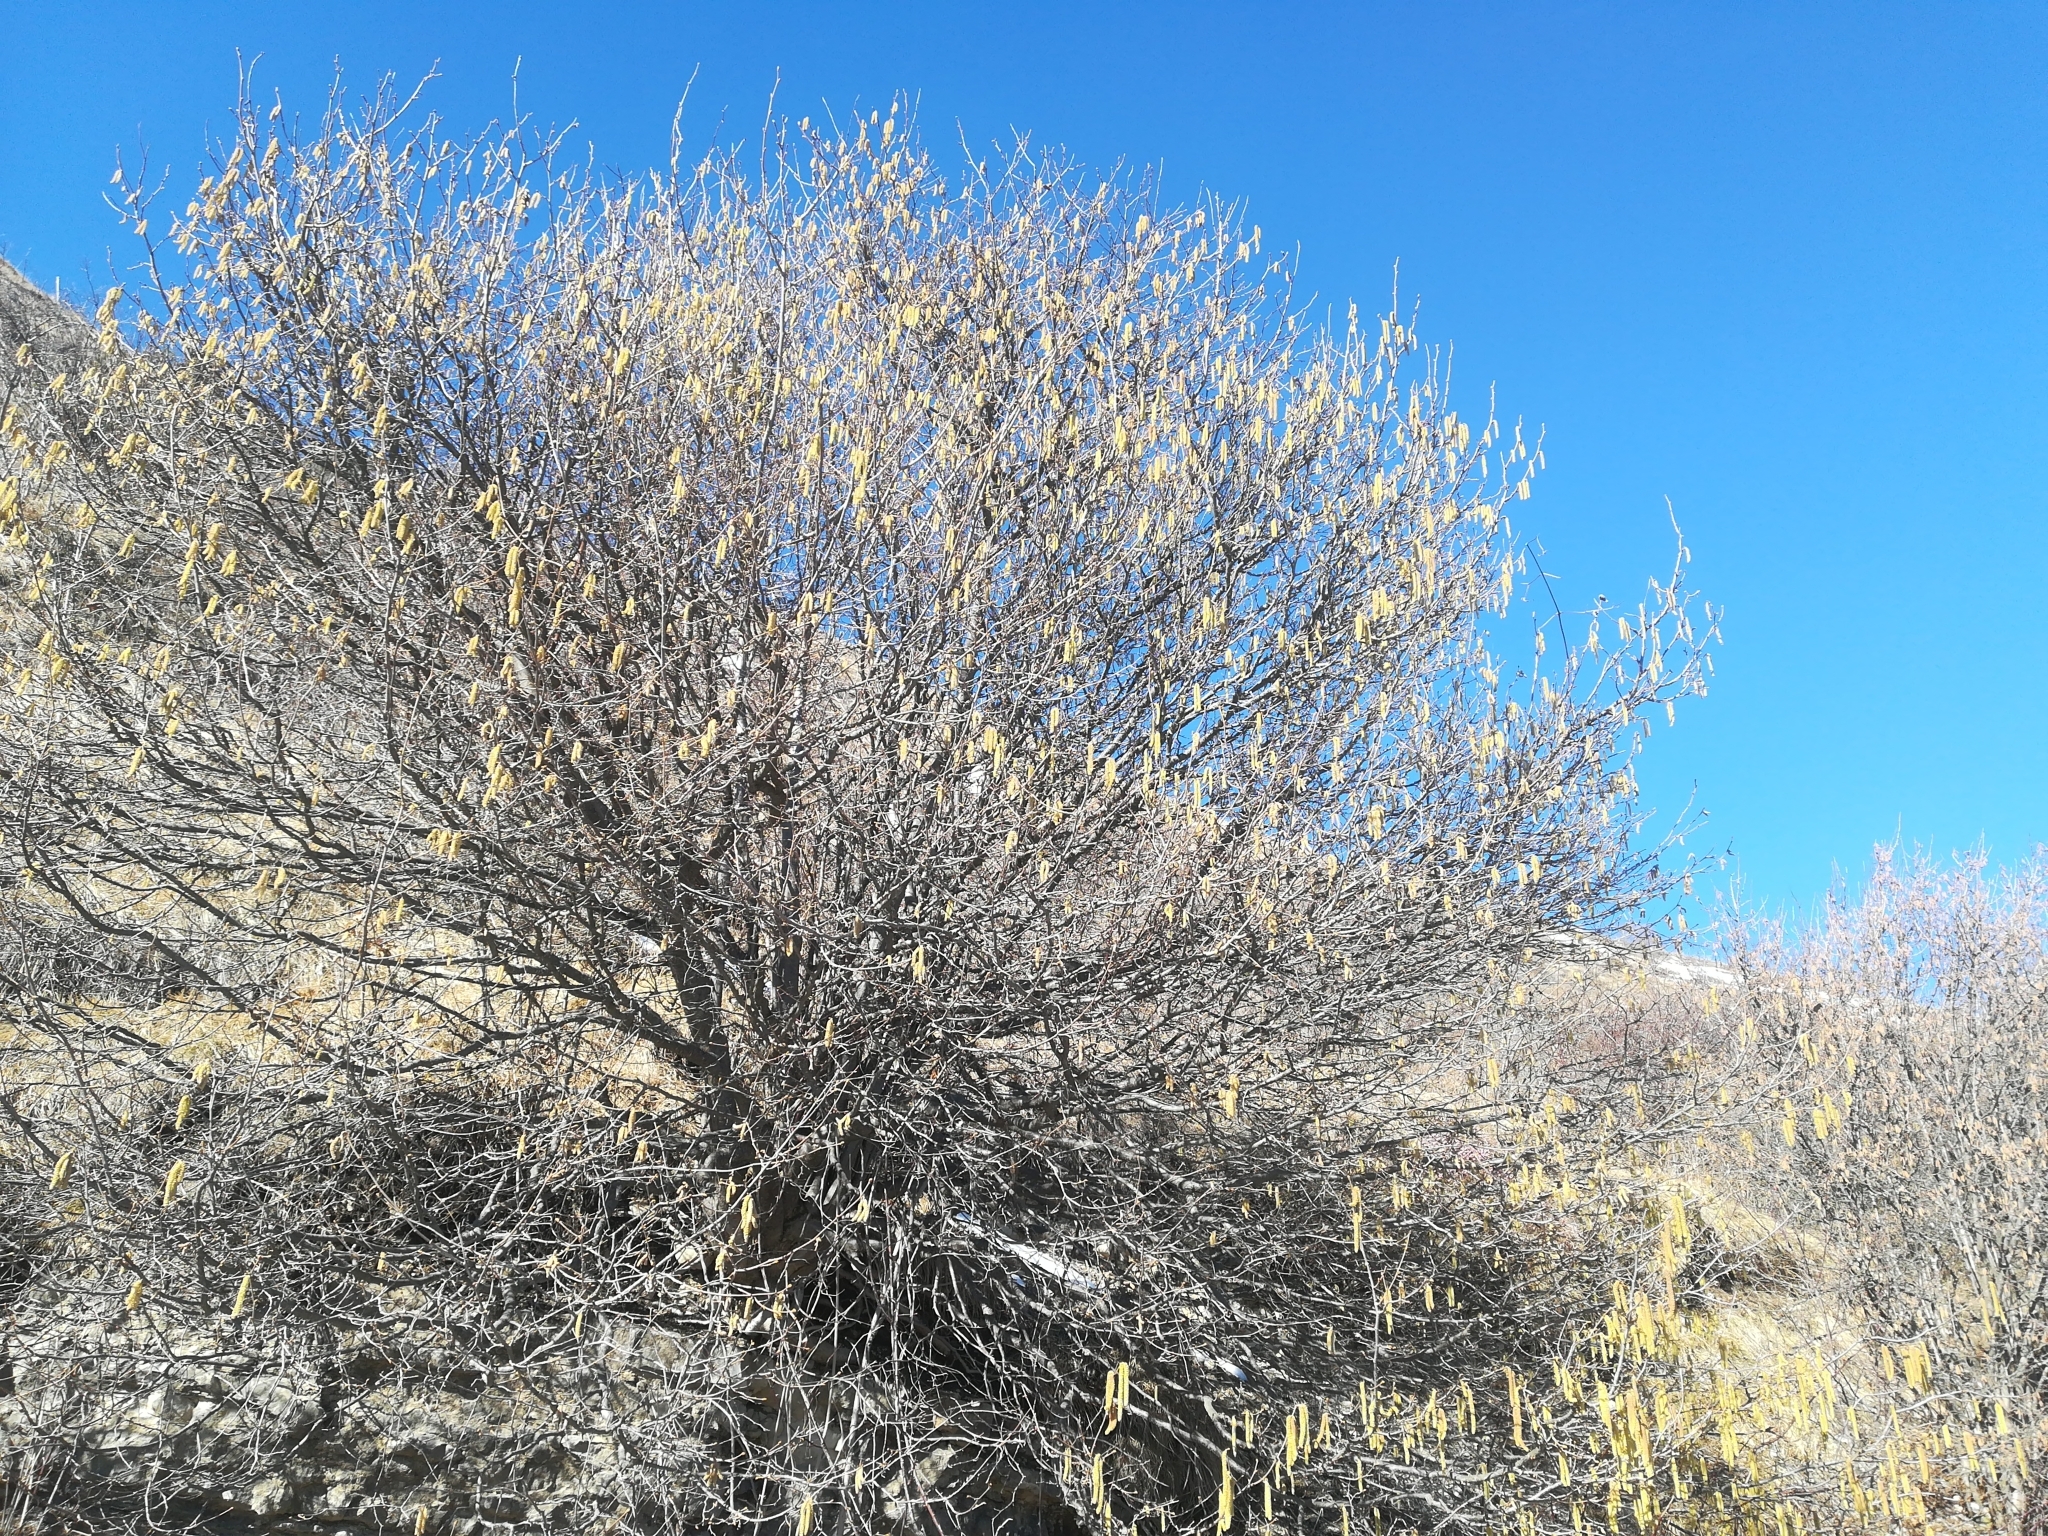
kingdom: Plantae
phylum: Tracheophyta
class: Magnoliopsida
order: Fagales
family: Betulaceae
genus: Corylus
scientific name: Corylus avellana
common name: European hazel
